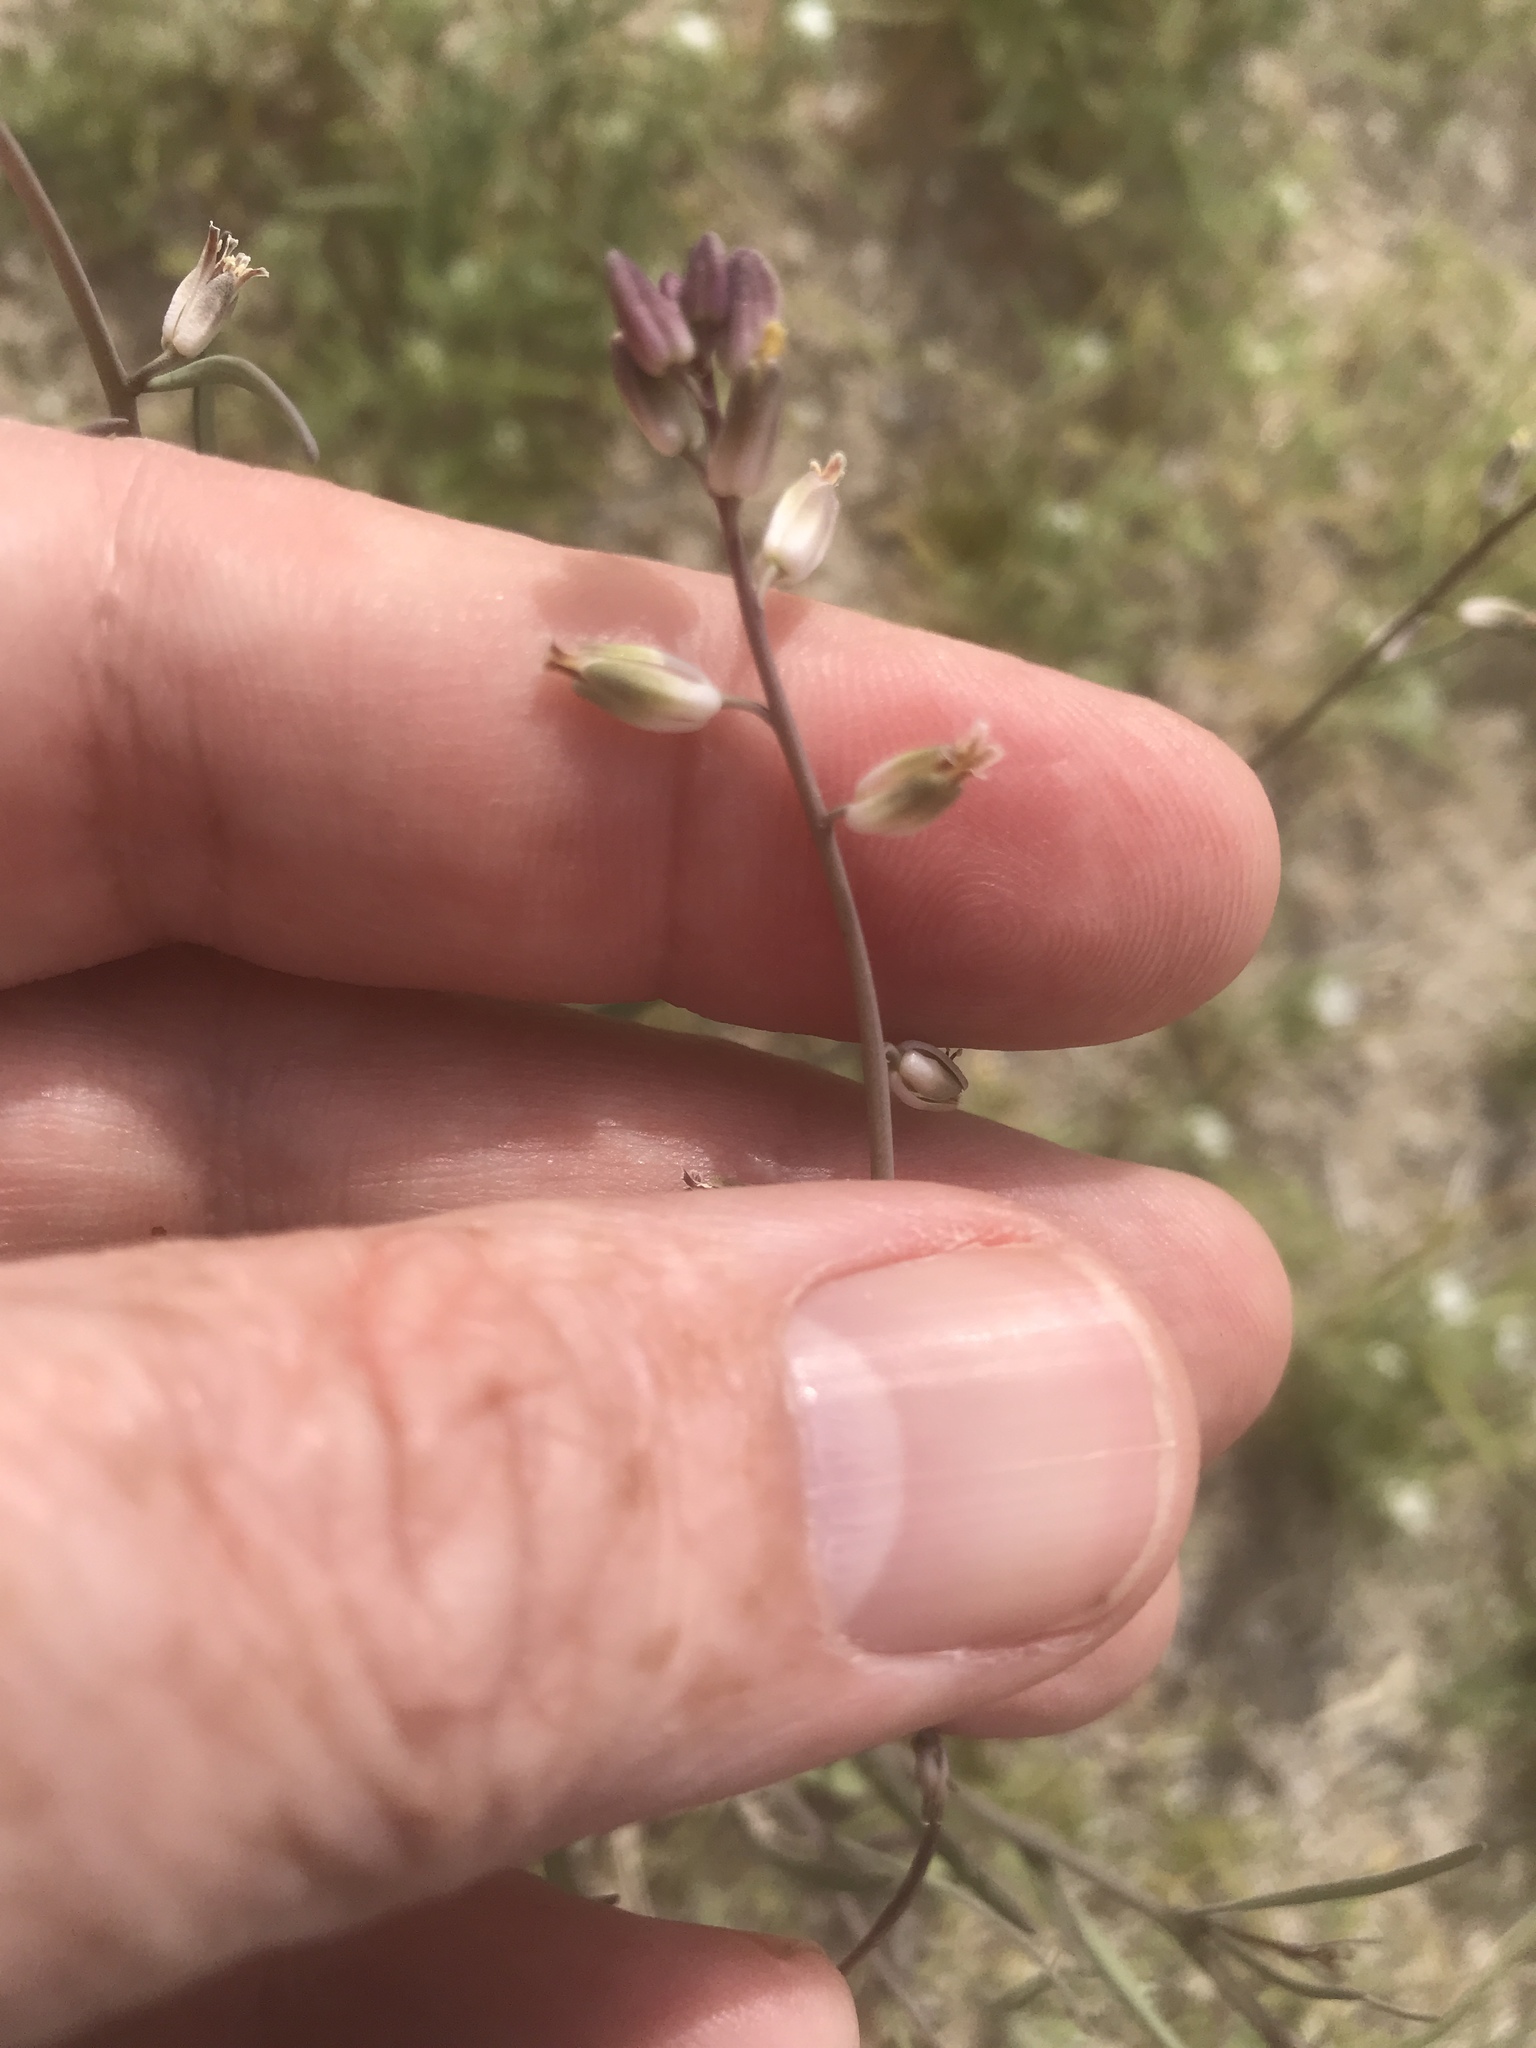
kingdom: Plantae
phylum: Tracheophyta
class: Magnoliopsida
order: Brassicales
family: Brassicaceae
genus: Streptanthus
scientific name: Streptanthus longirostris
